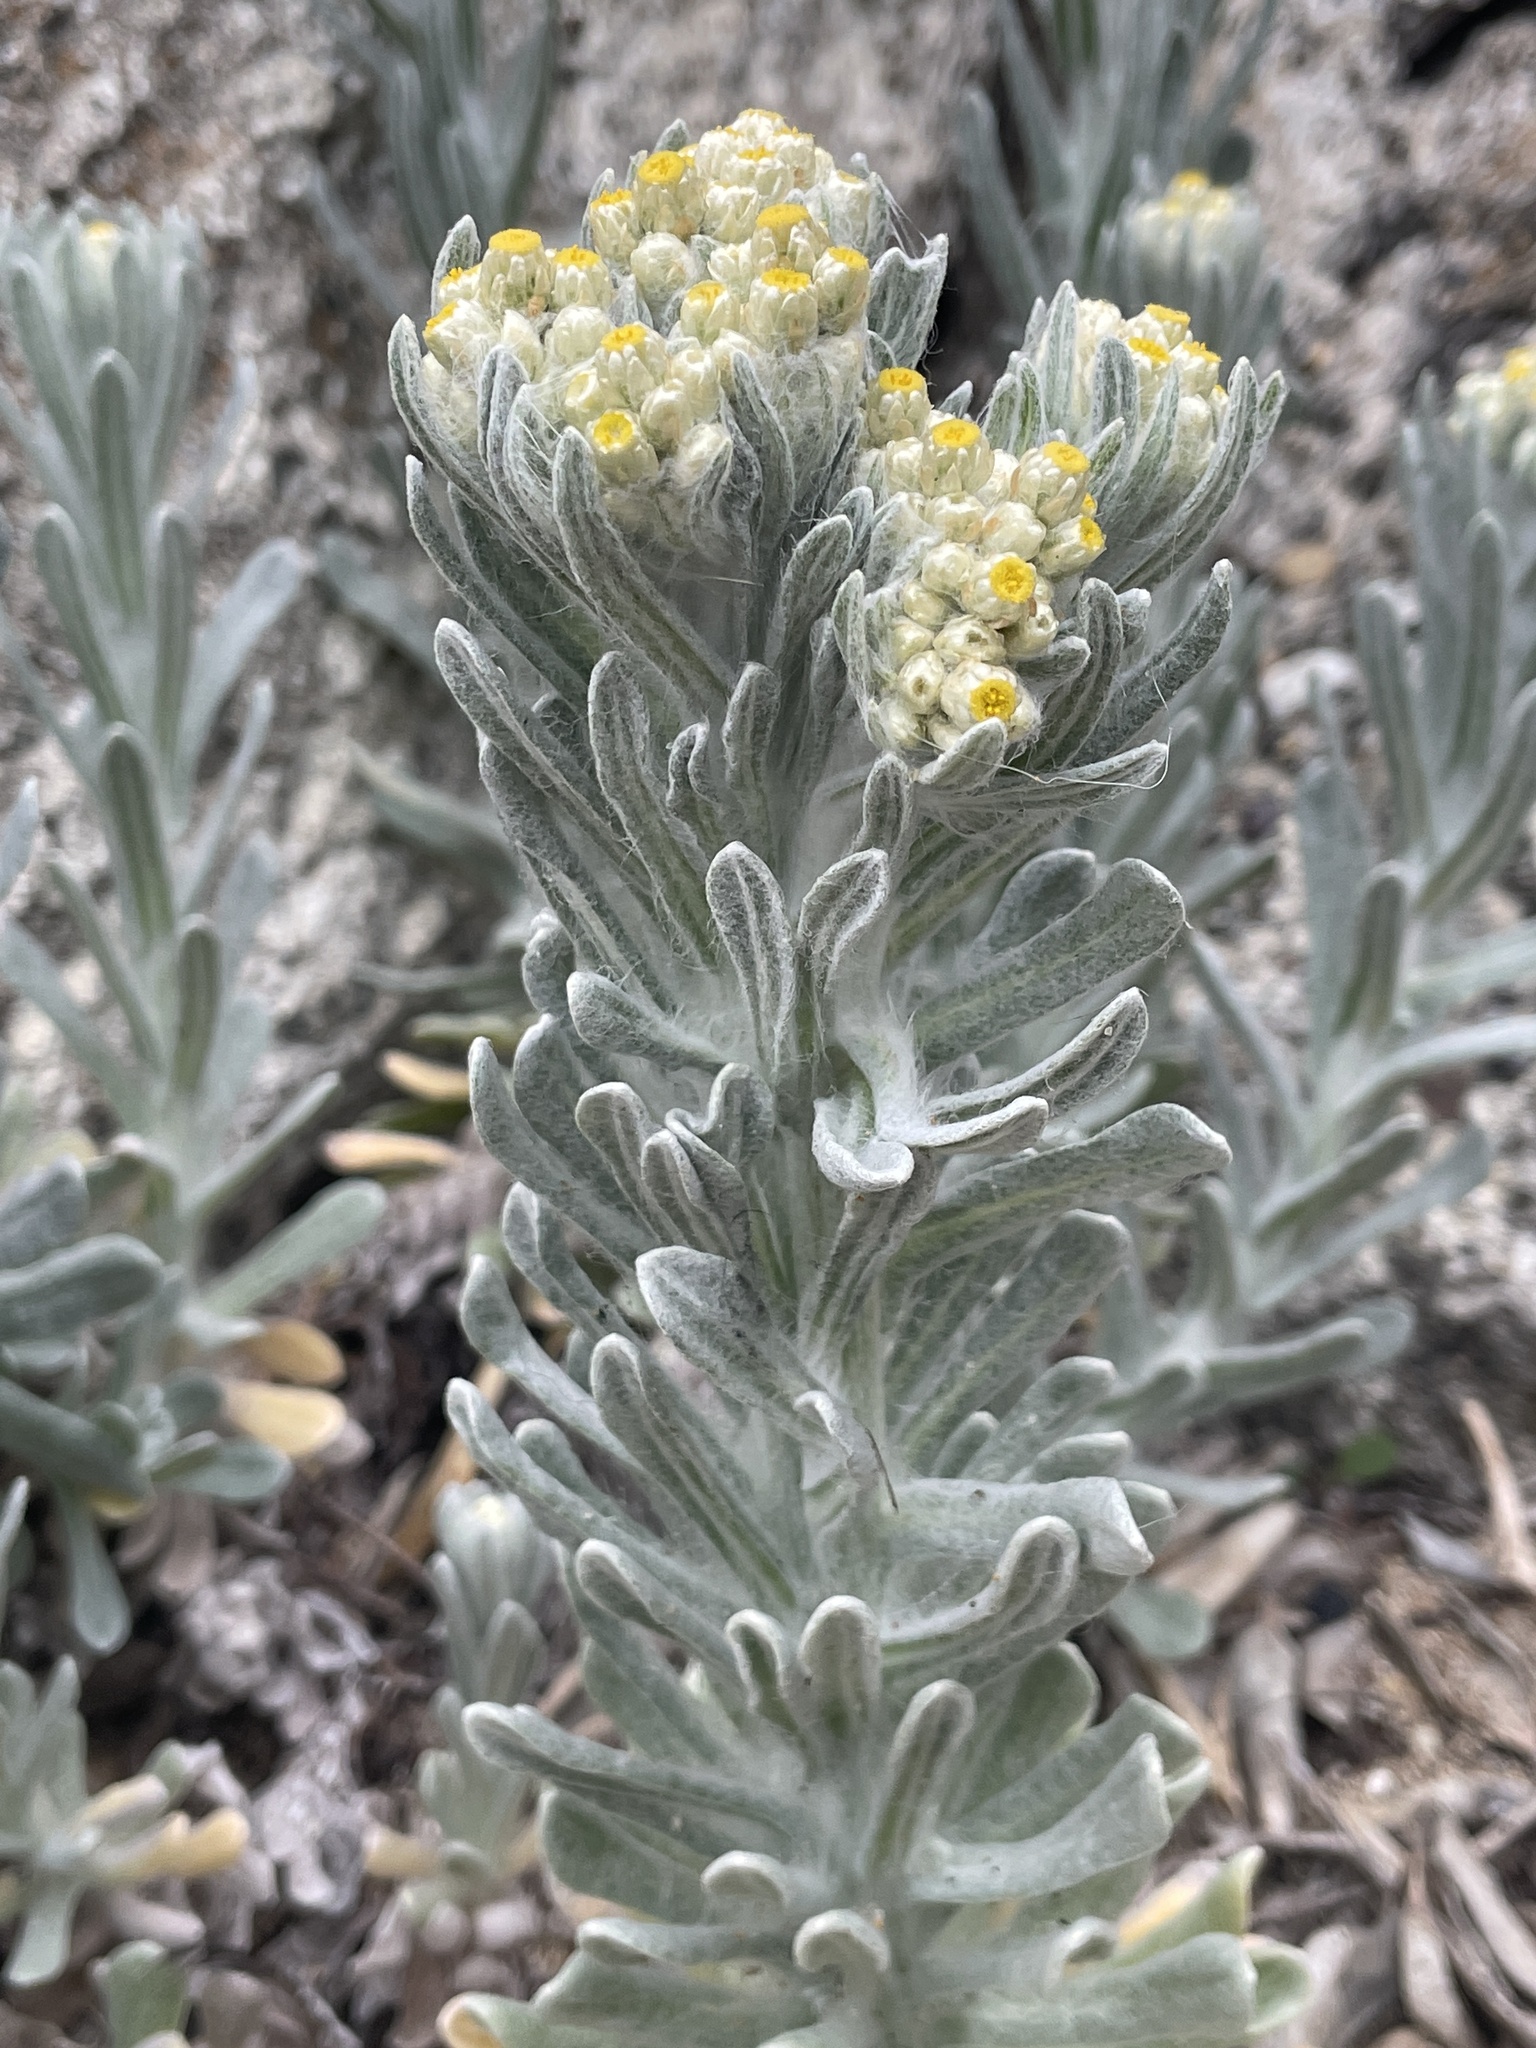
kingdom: Plantae
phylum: Tracheophyta
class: Magnoliopsida
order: Asterales
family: Asteraceae
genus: Pseudognaphalium
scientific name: Pseudognaphalium stramineum
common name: Cotton-batting-plant
